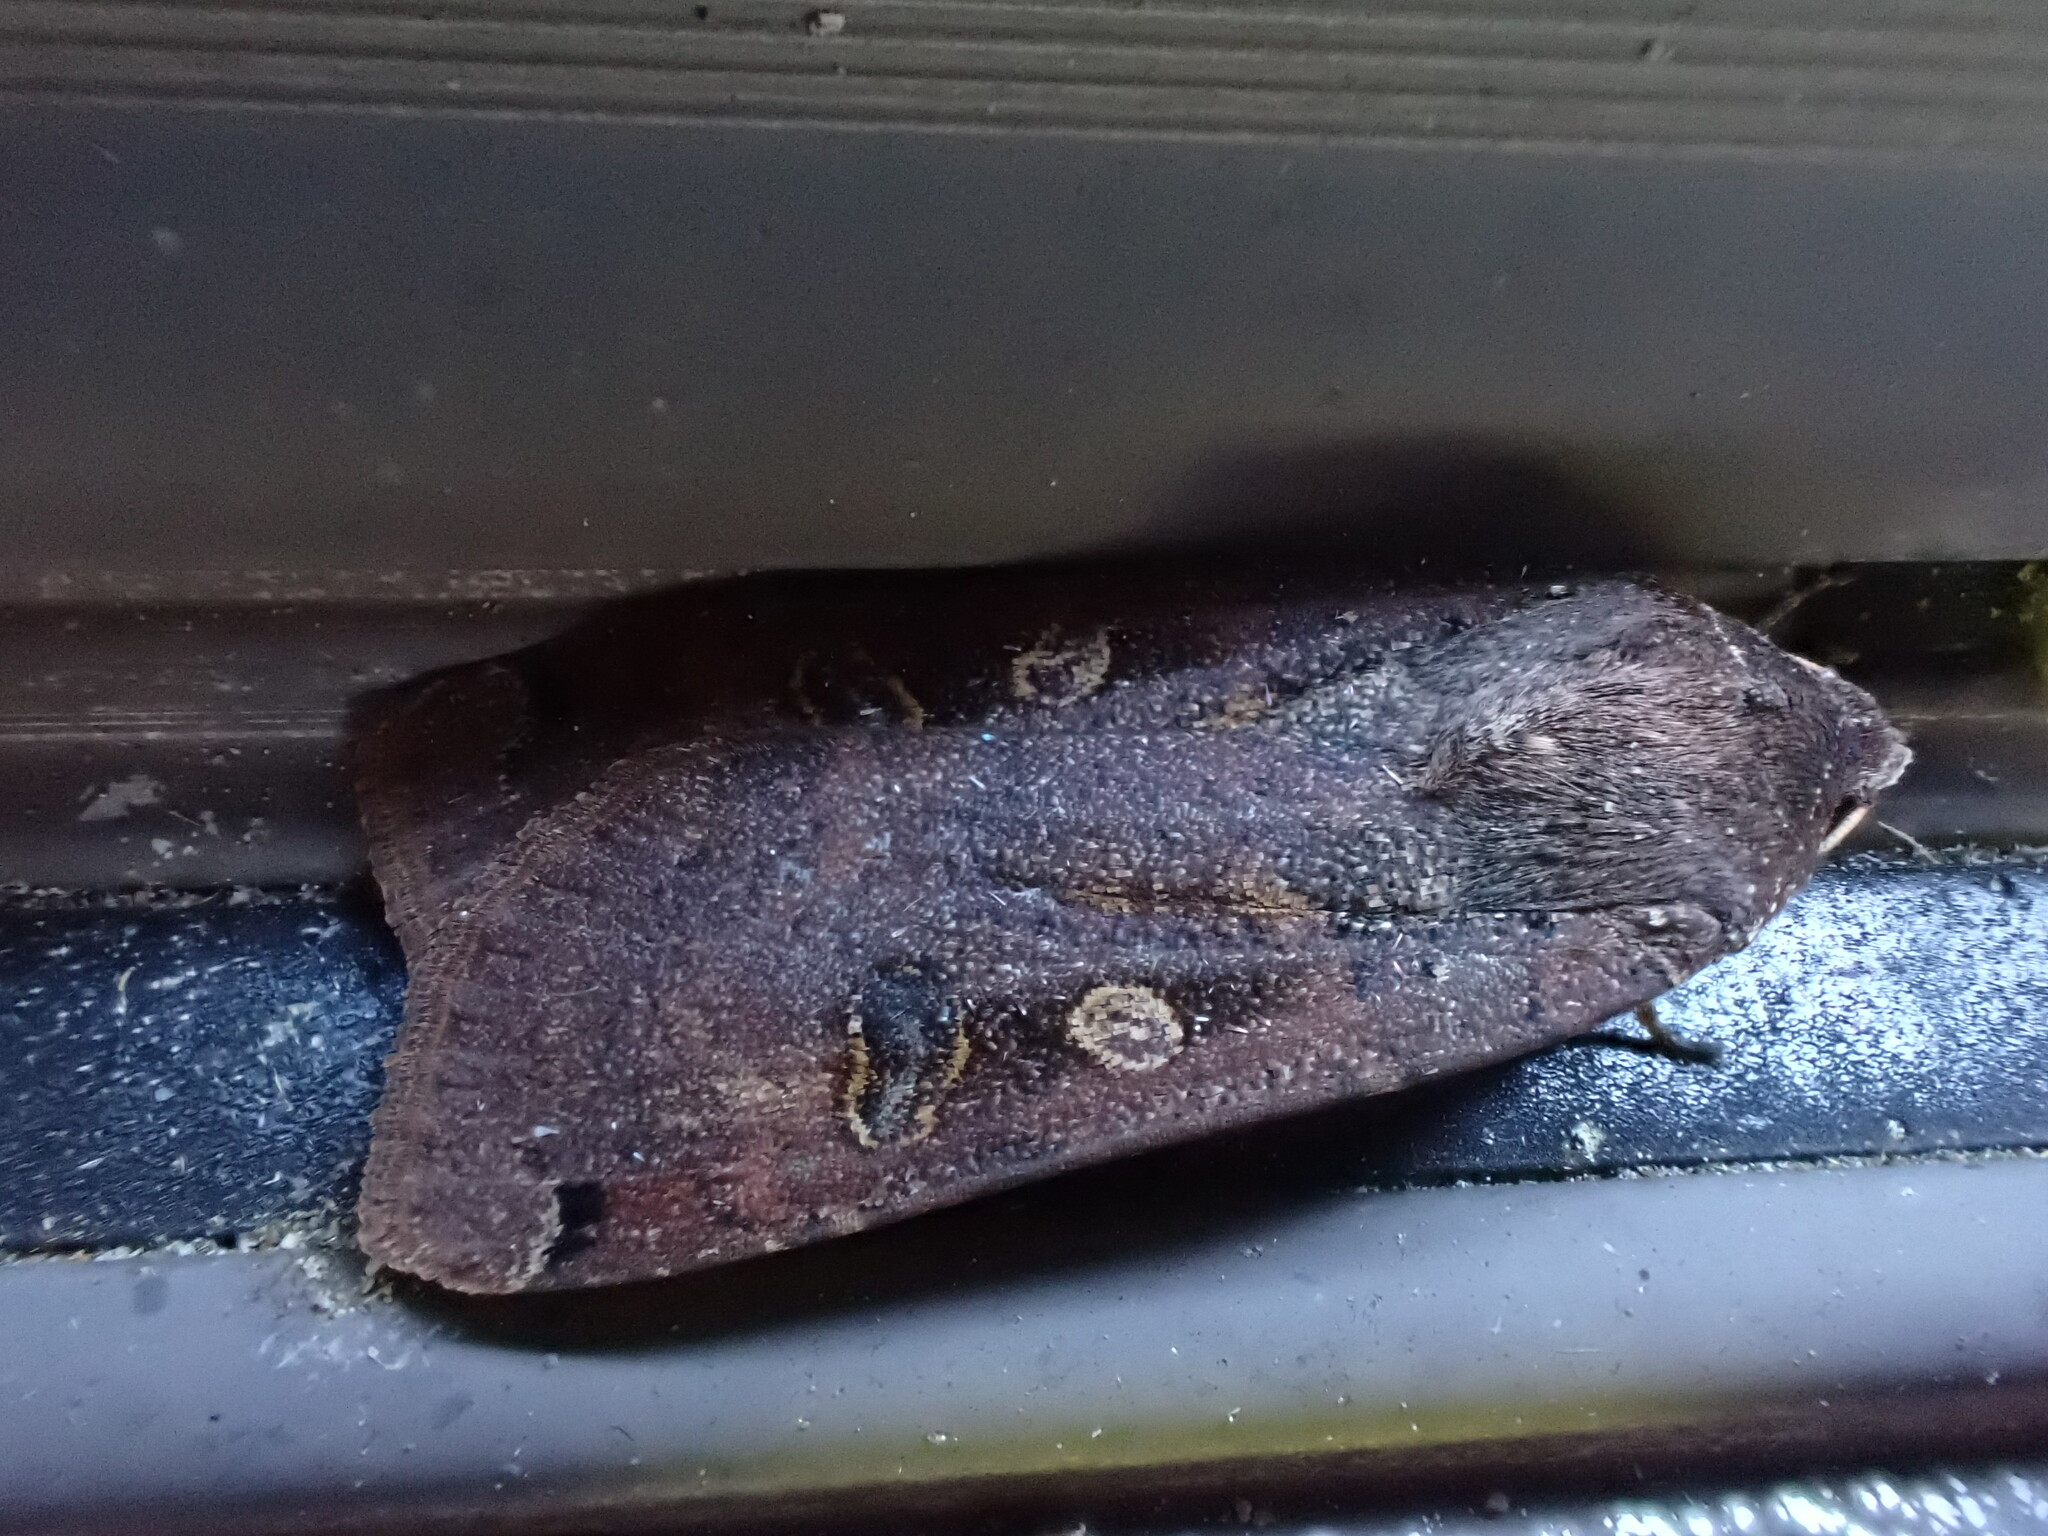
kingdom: Animalia
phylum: Arthropoda
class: Insecta
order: Lepidoptera
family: Noctuidae
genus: Noctua
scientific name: Noctua pronuba
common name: Large yellow underwing
